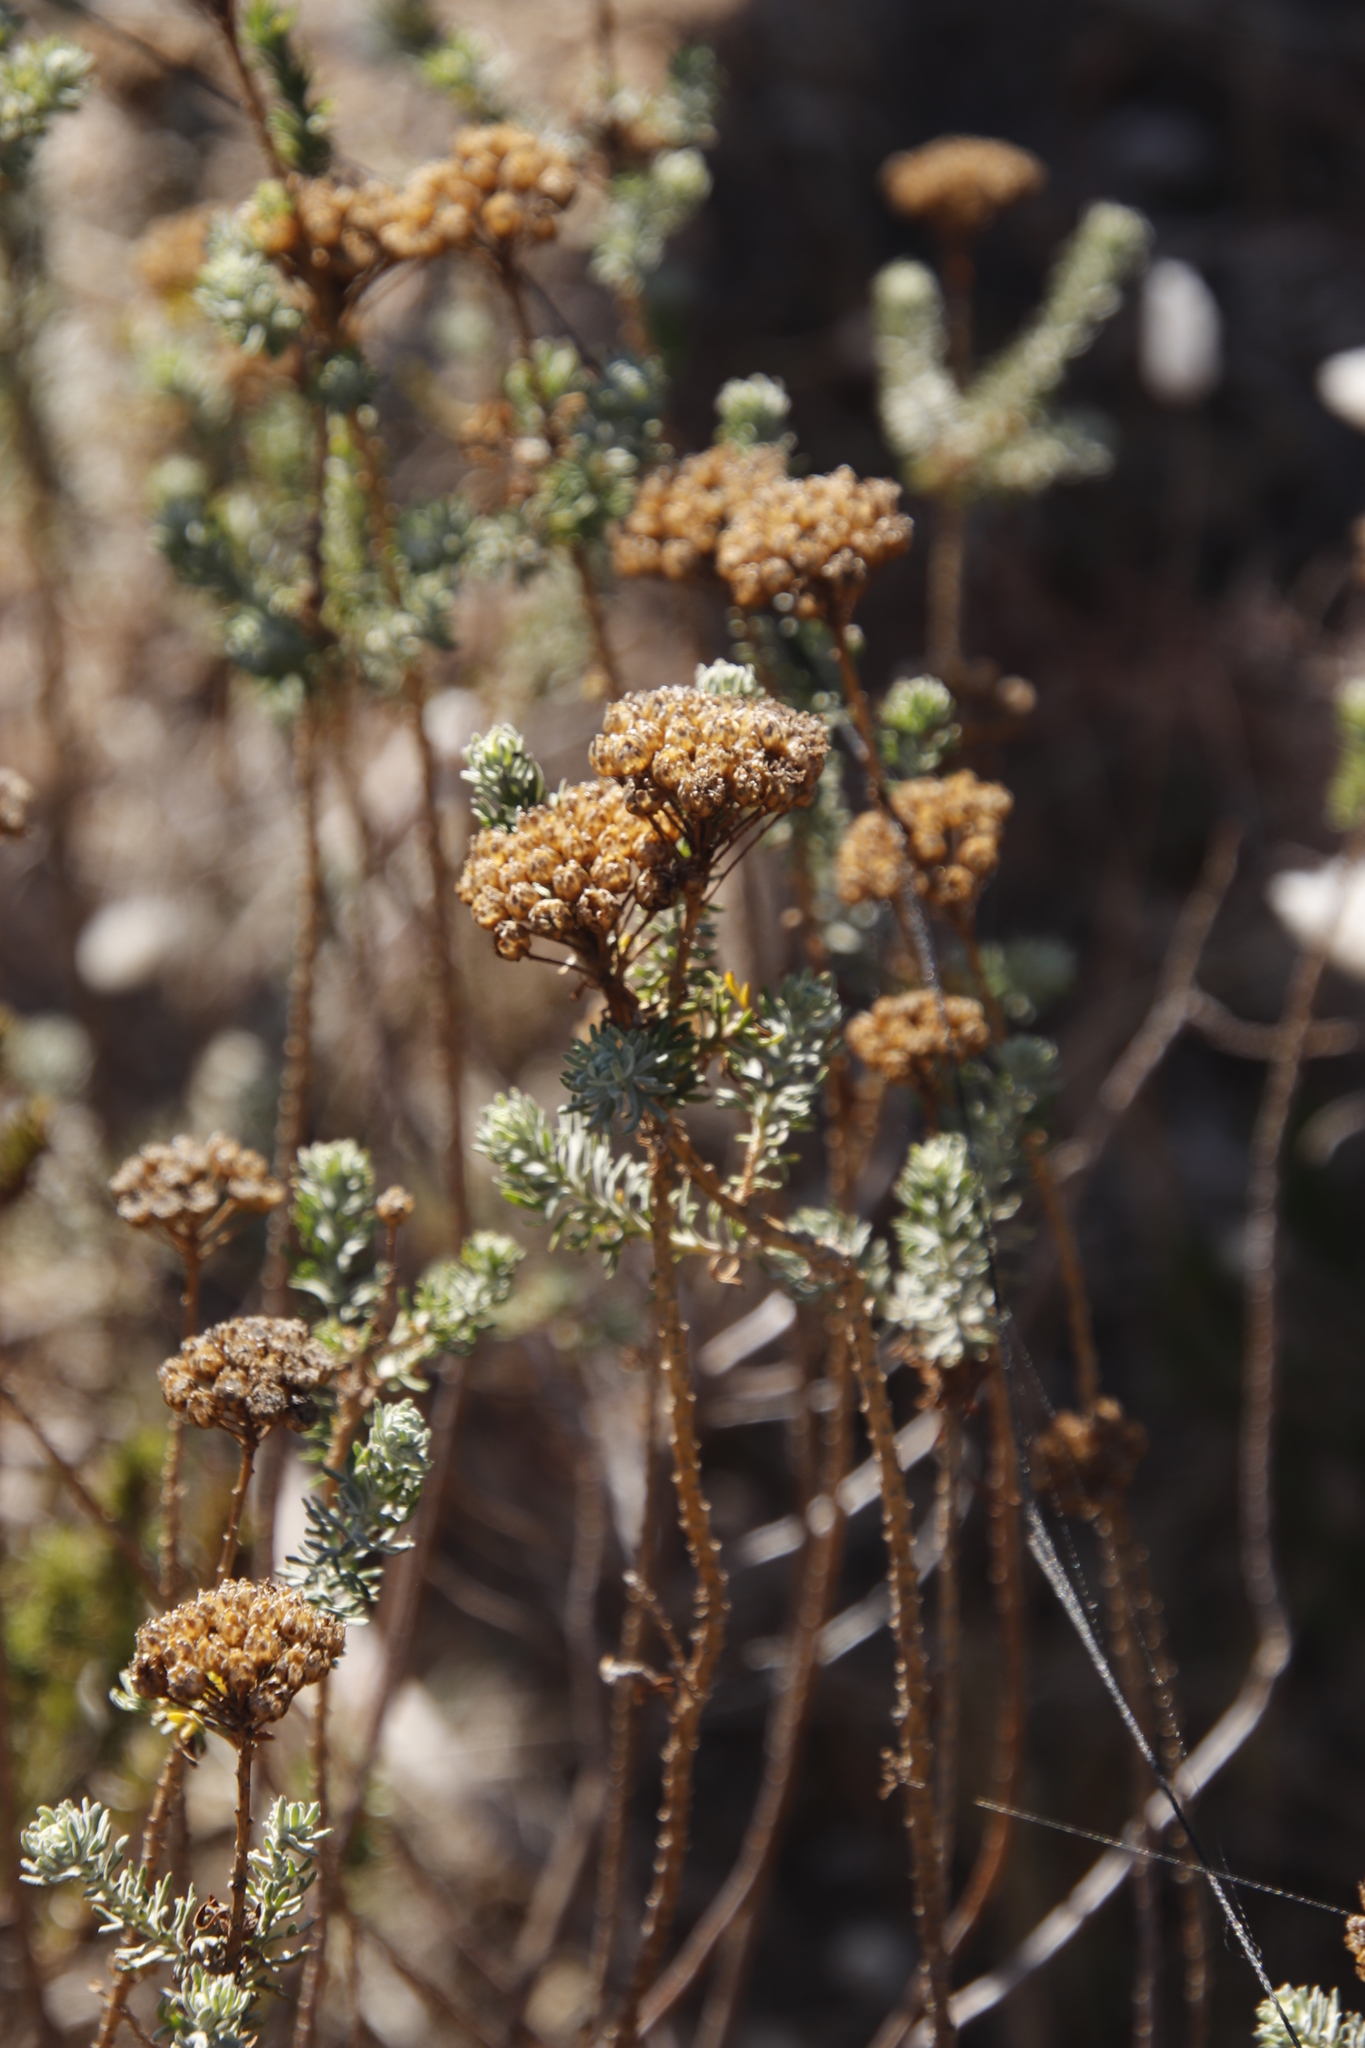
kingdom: Plantae
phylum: Tracheophyta
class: Magnoliopsida
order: Asterales
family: Asteraceae
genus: Athanasia
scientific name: Athanasia trifurcata
